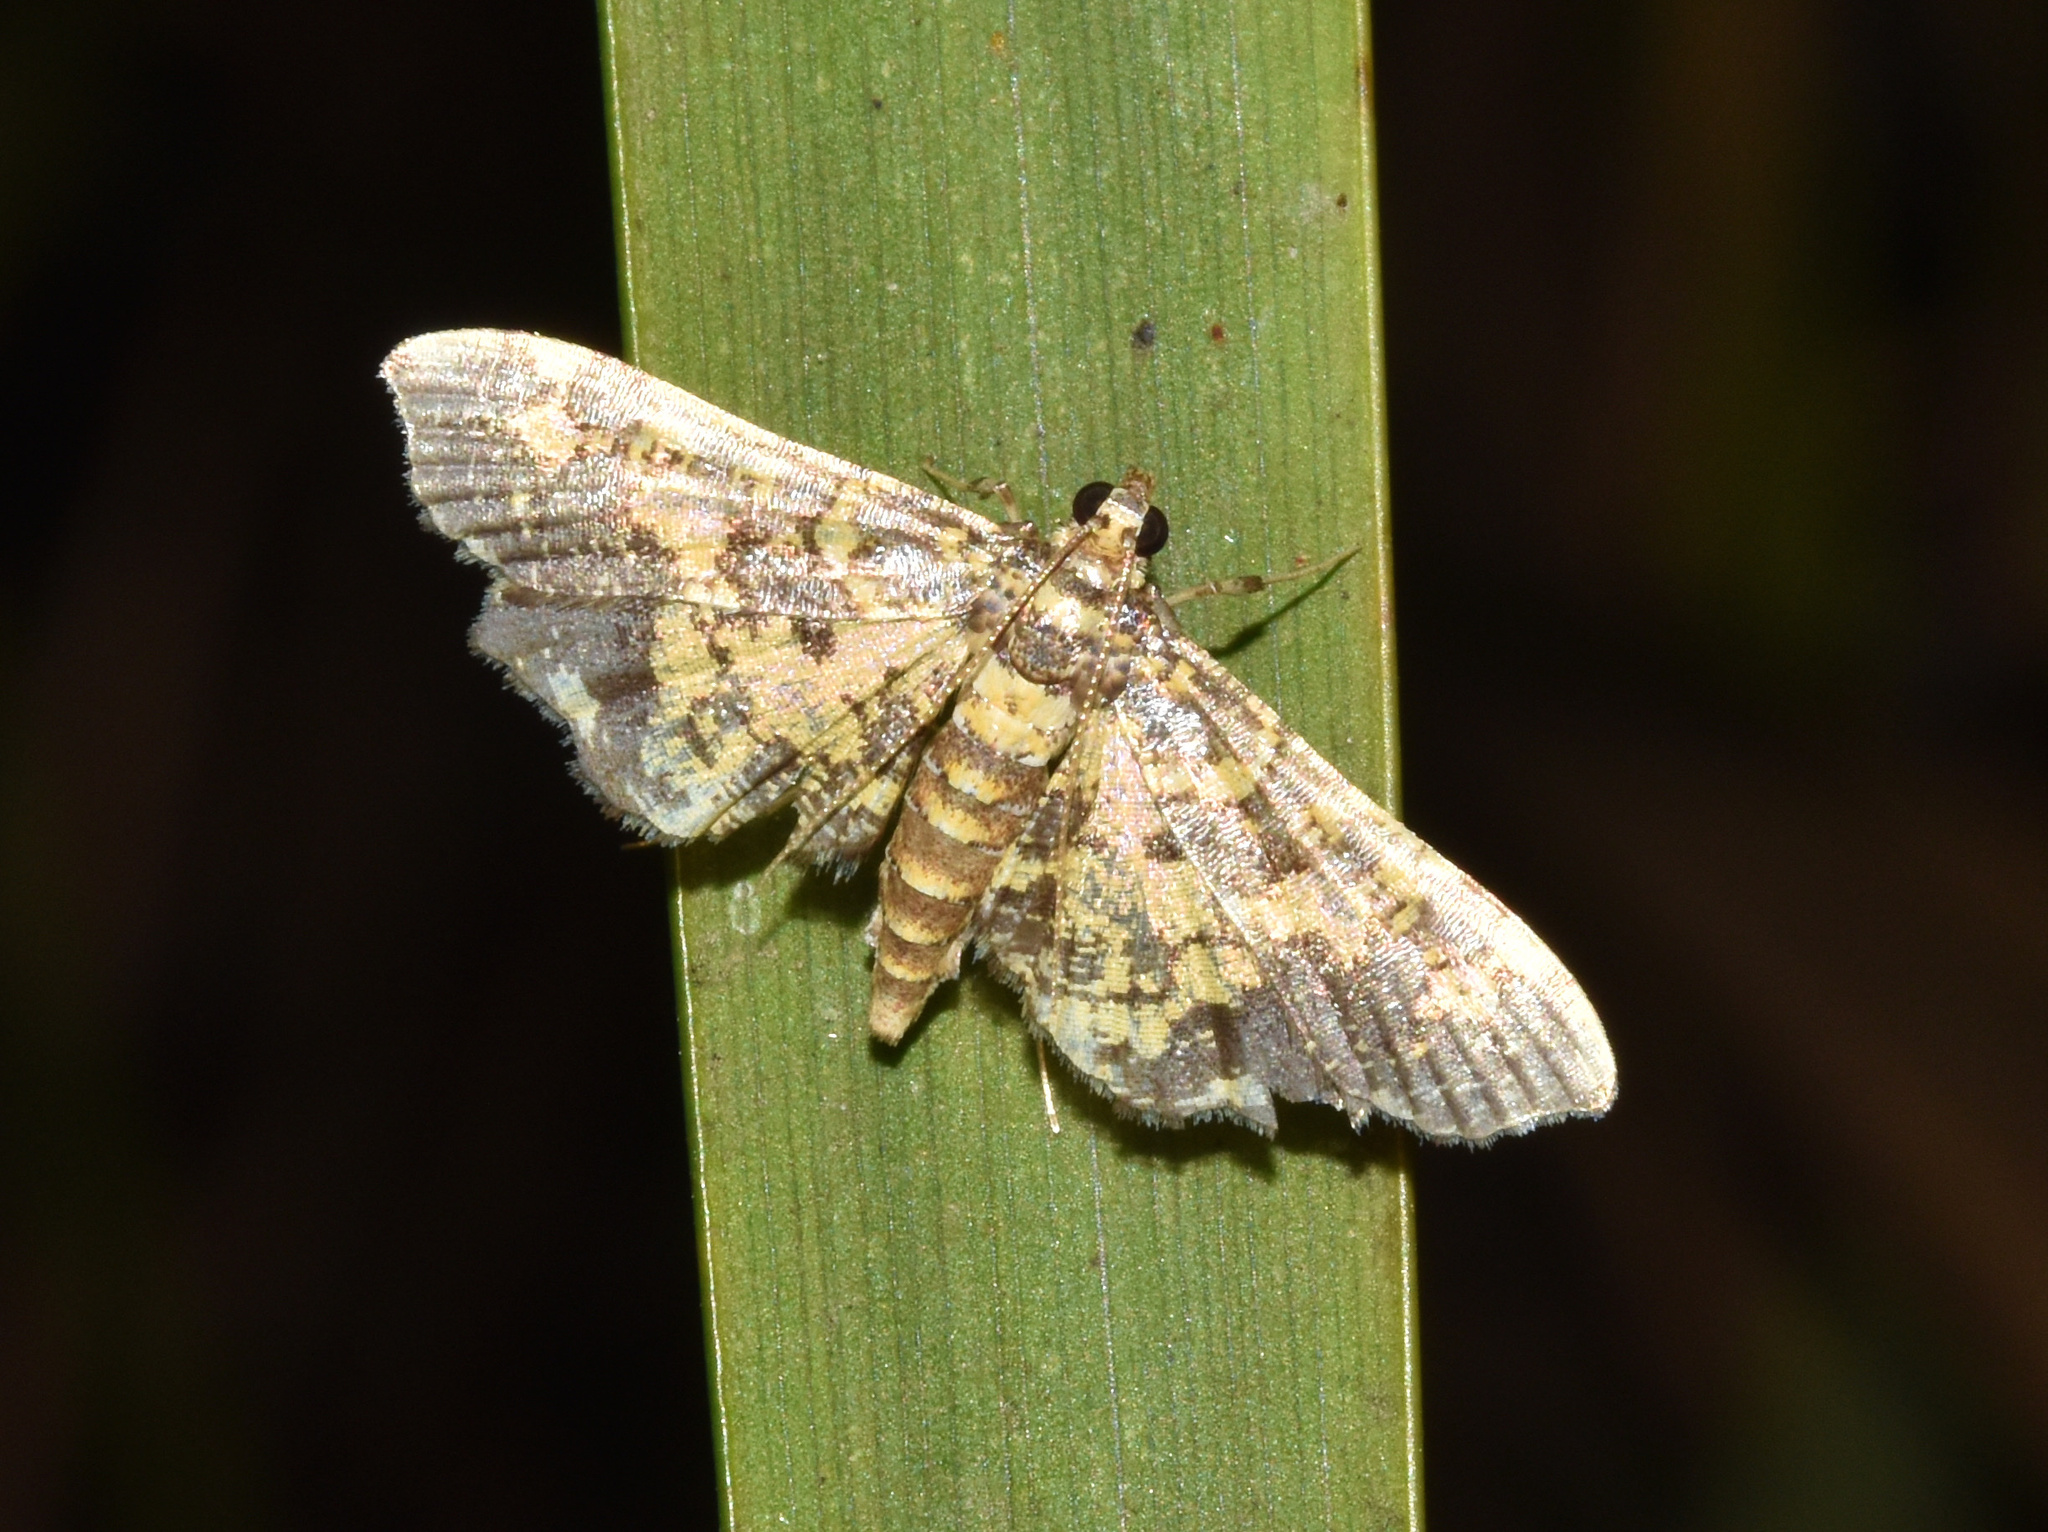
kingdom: Animalia
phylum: Arthropoda
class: Insecta
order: Lepidoptera
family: Crambidae
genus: Eurrhyparodes
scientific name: Eurrhyparodes bracteolalis
